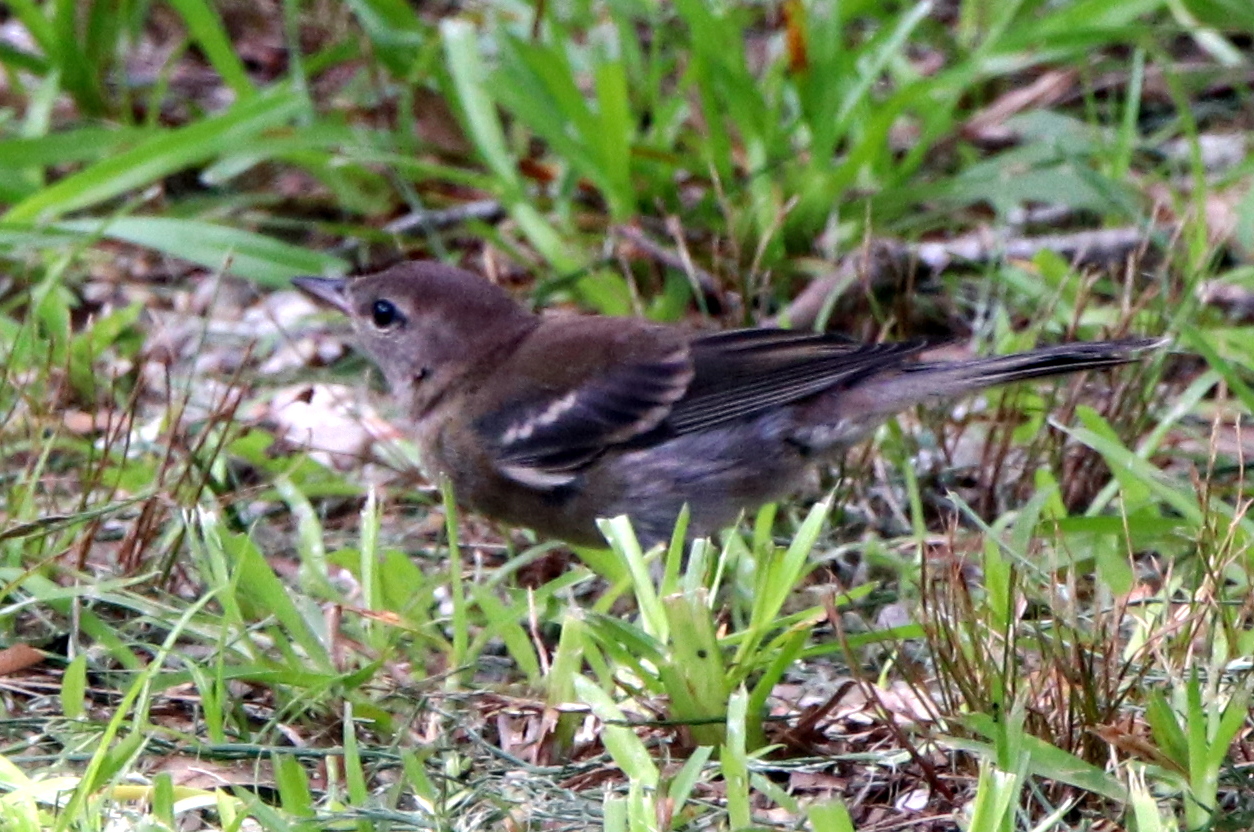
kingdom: Animalia
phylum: Chordata
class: Aves
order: Passeriformes
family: Parulidae
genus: Setophaga
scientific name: Setophaga pinus
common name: Pine warbler
